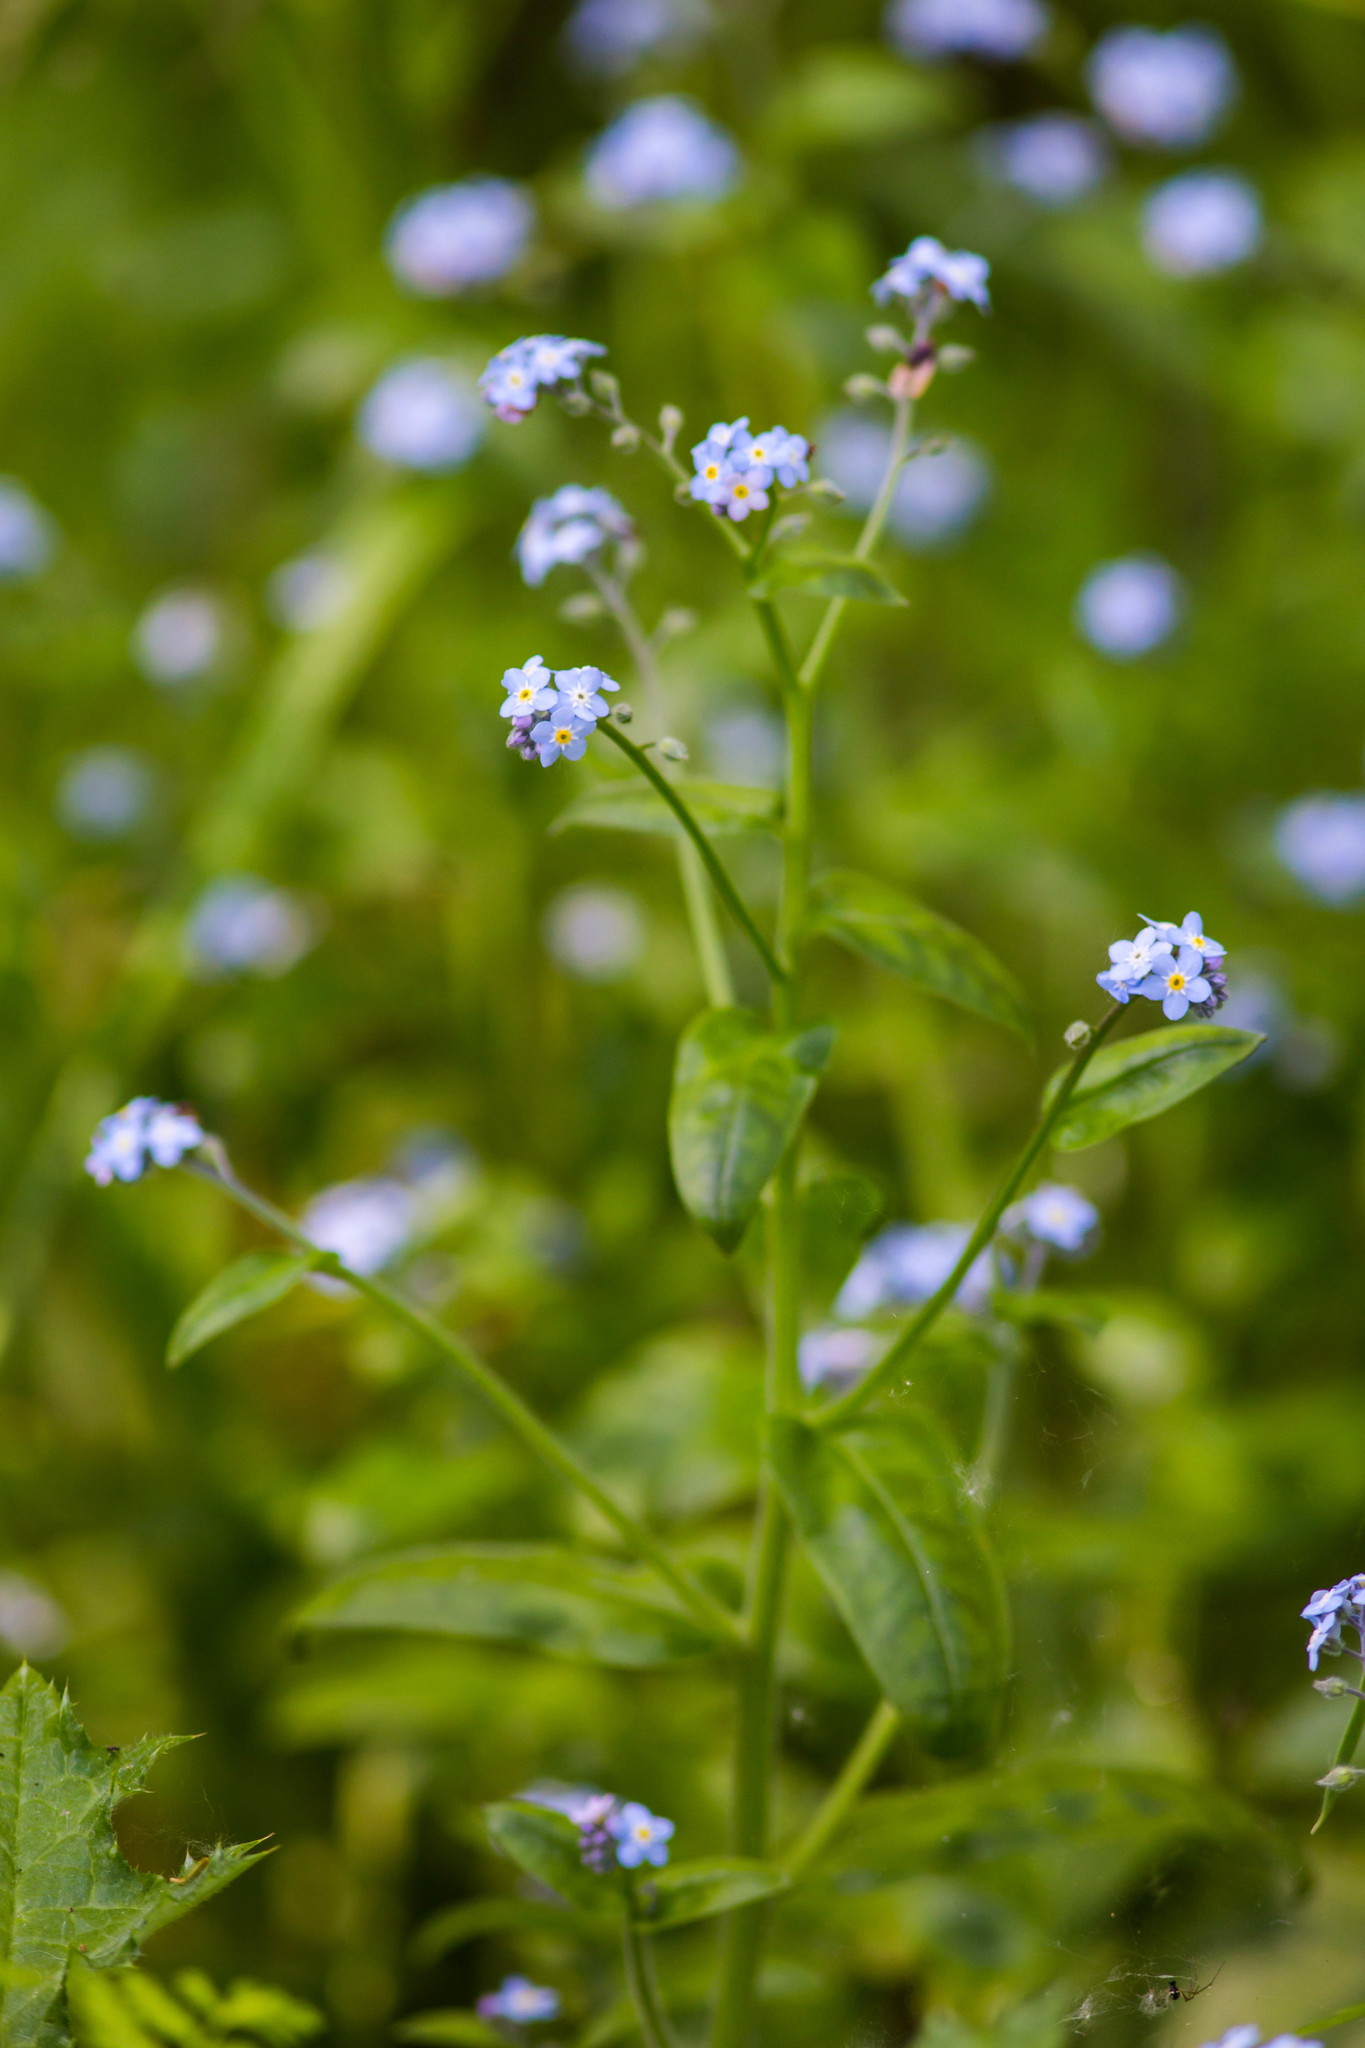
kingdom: Plantae
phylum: Tracheophyta
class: Magnoliopsida
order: Boraginales
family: Boraginaceae
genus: Myosotis
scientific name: Myosotis latifolia
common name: Broadleaf forget-me-not
